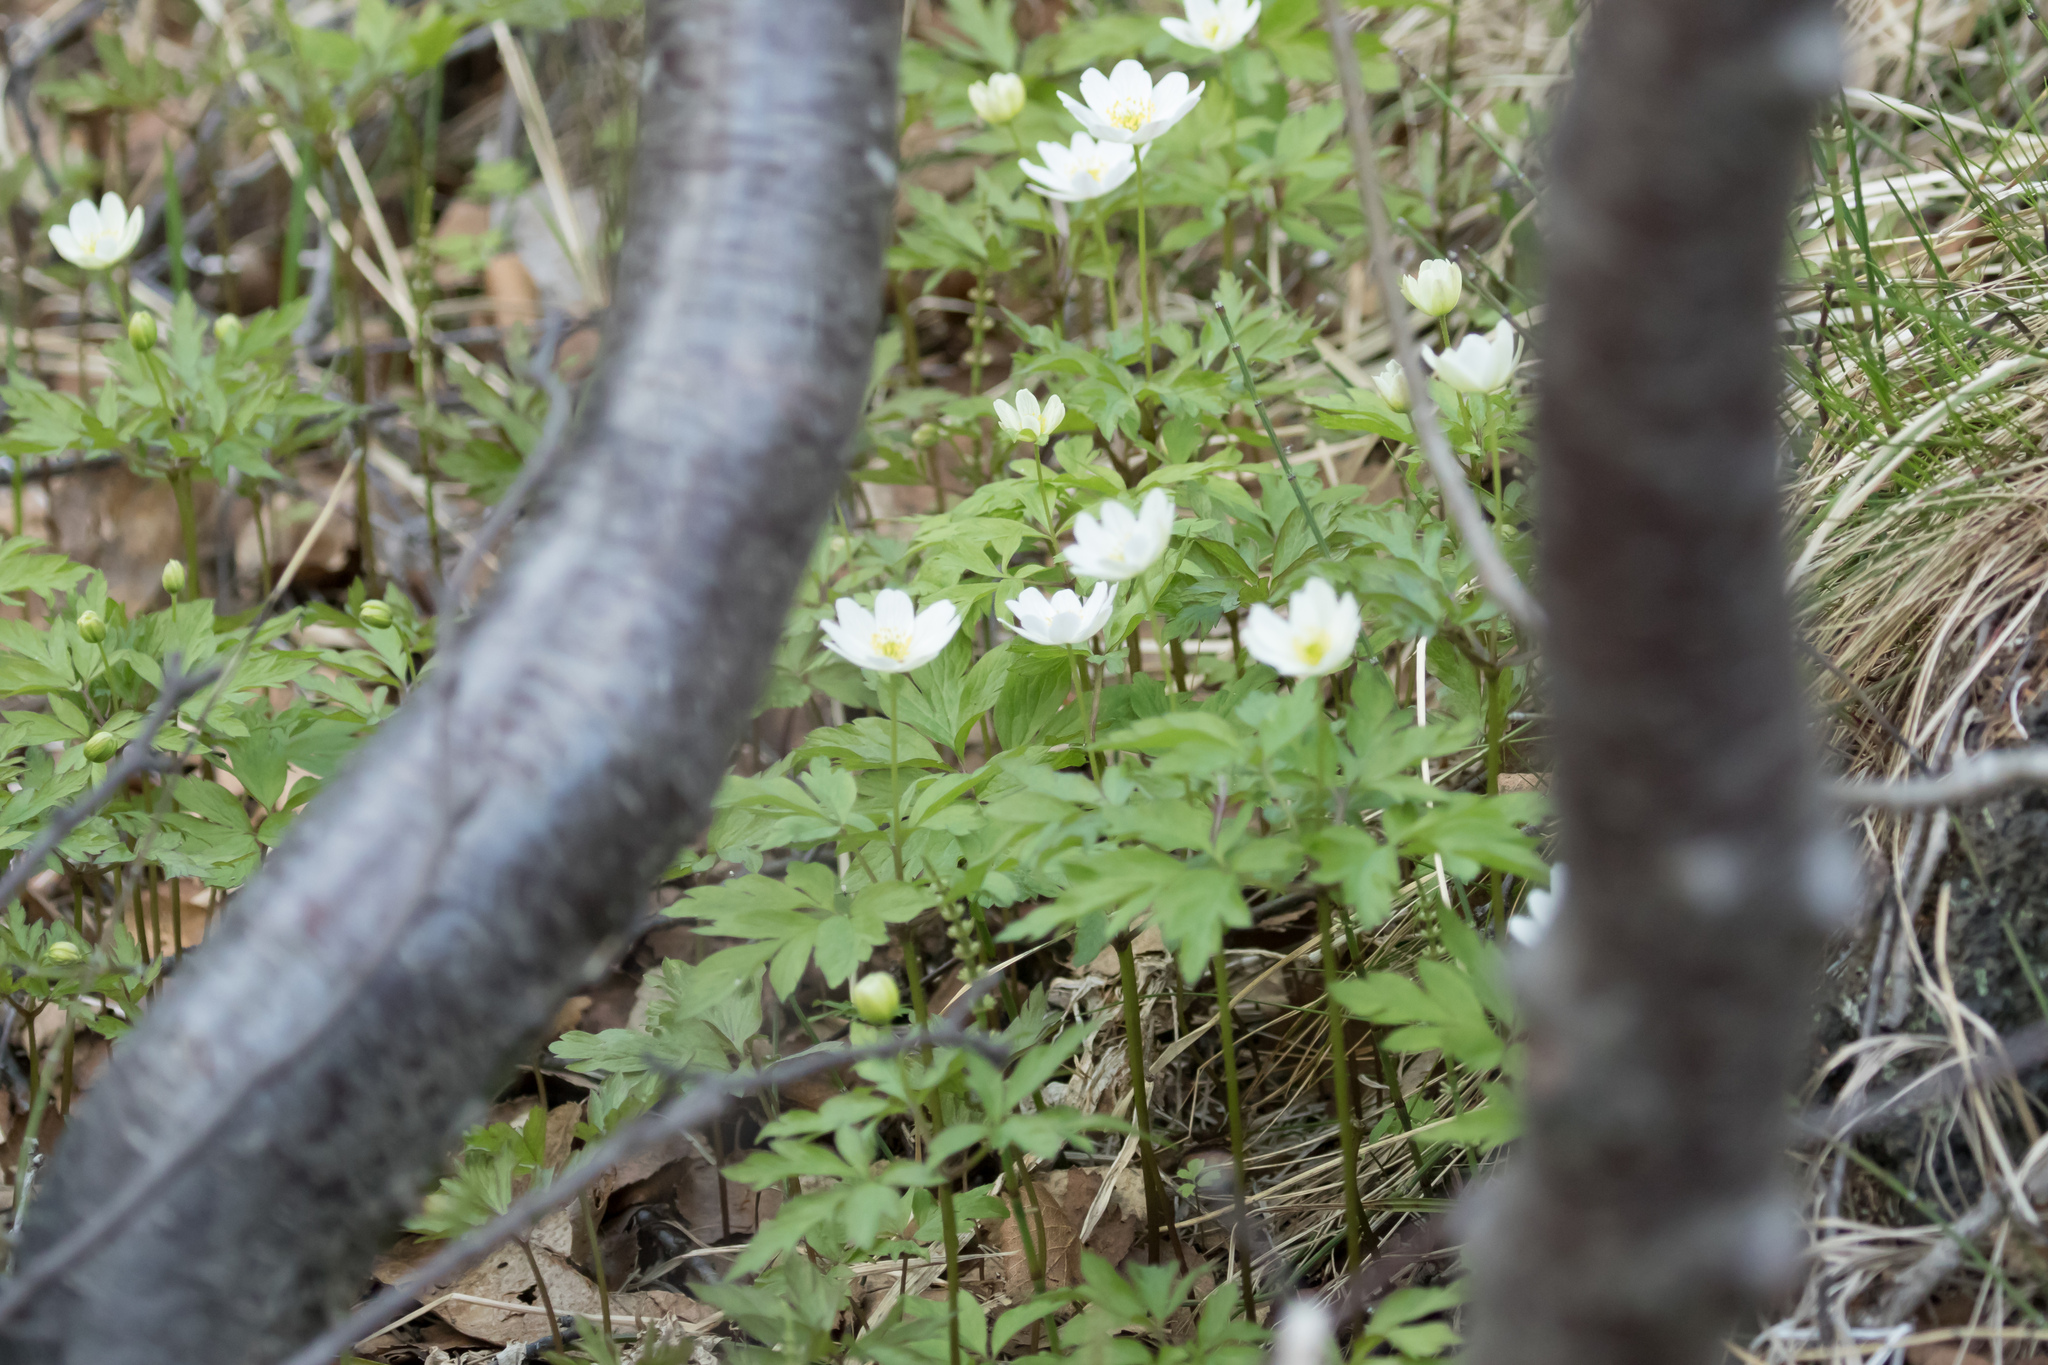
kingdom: Plantae
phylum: Tracheophyta
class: Magnoliopsida
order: Ranunculales
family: Ranunculaceae
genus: Anemone
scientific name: Anemone nemorosa
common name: Wood anemone
